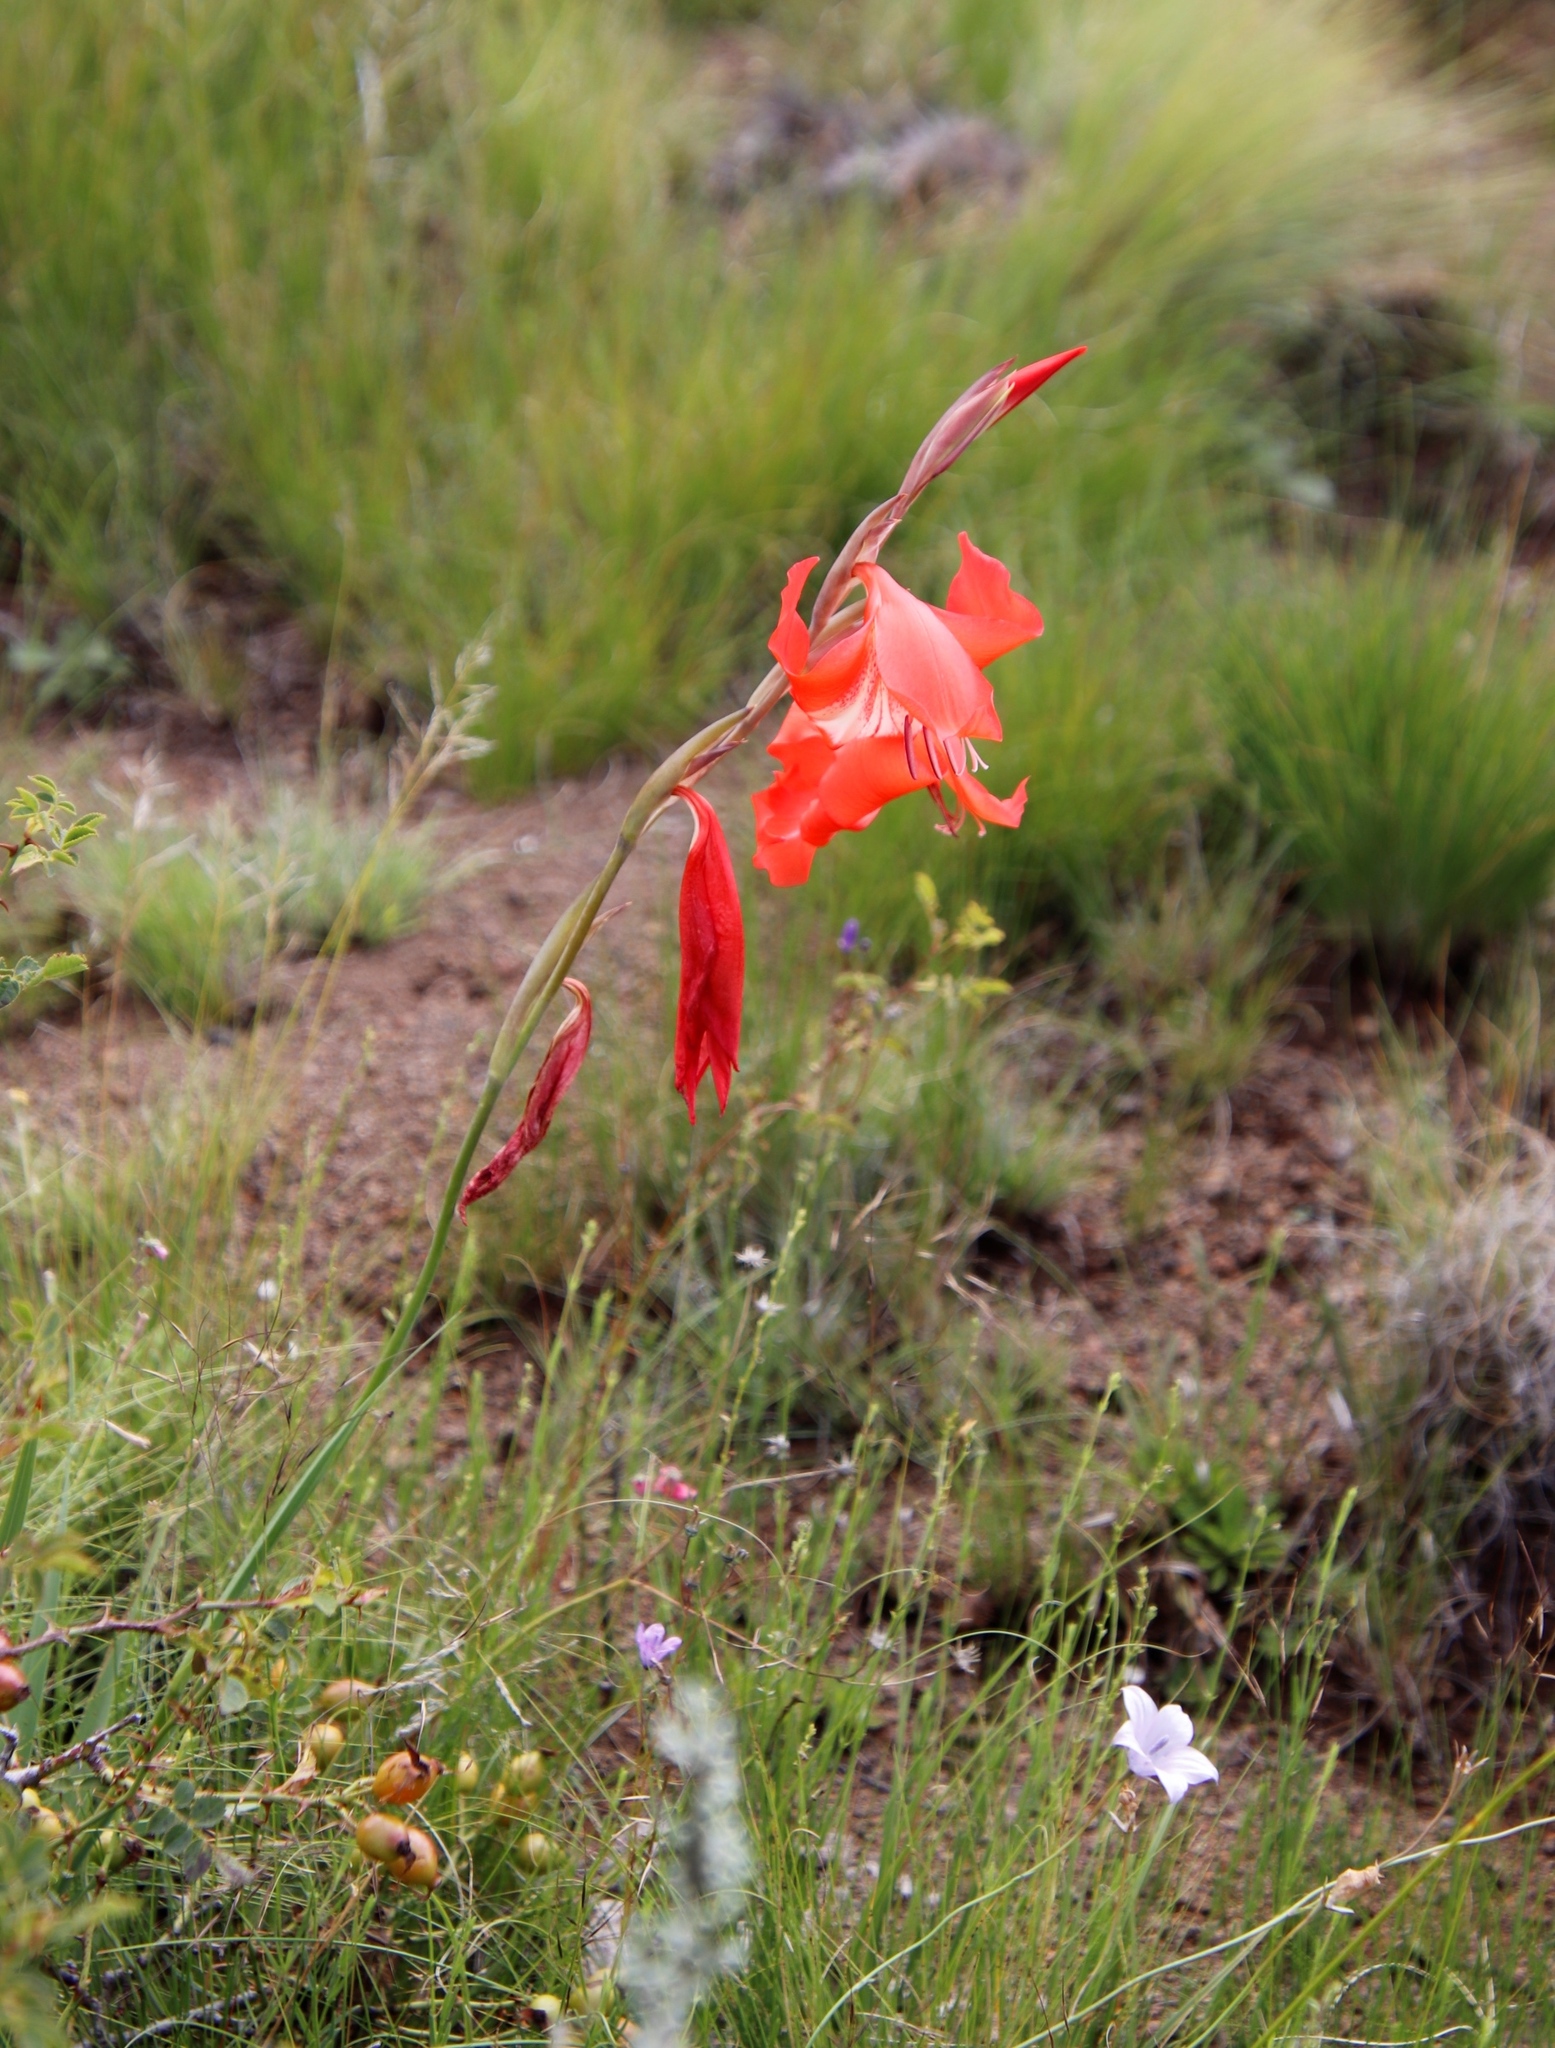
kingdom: Plantae
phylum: Tracheophyta
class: Liliopsida
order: Asparagales
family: Iridaceae
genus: Gladiolus
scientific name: Gladiolus saundersii
